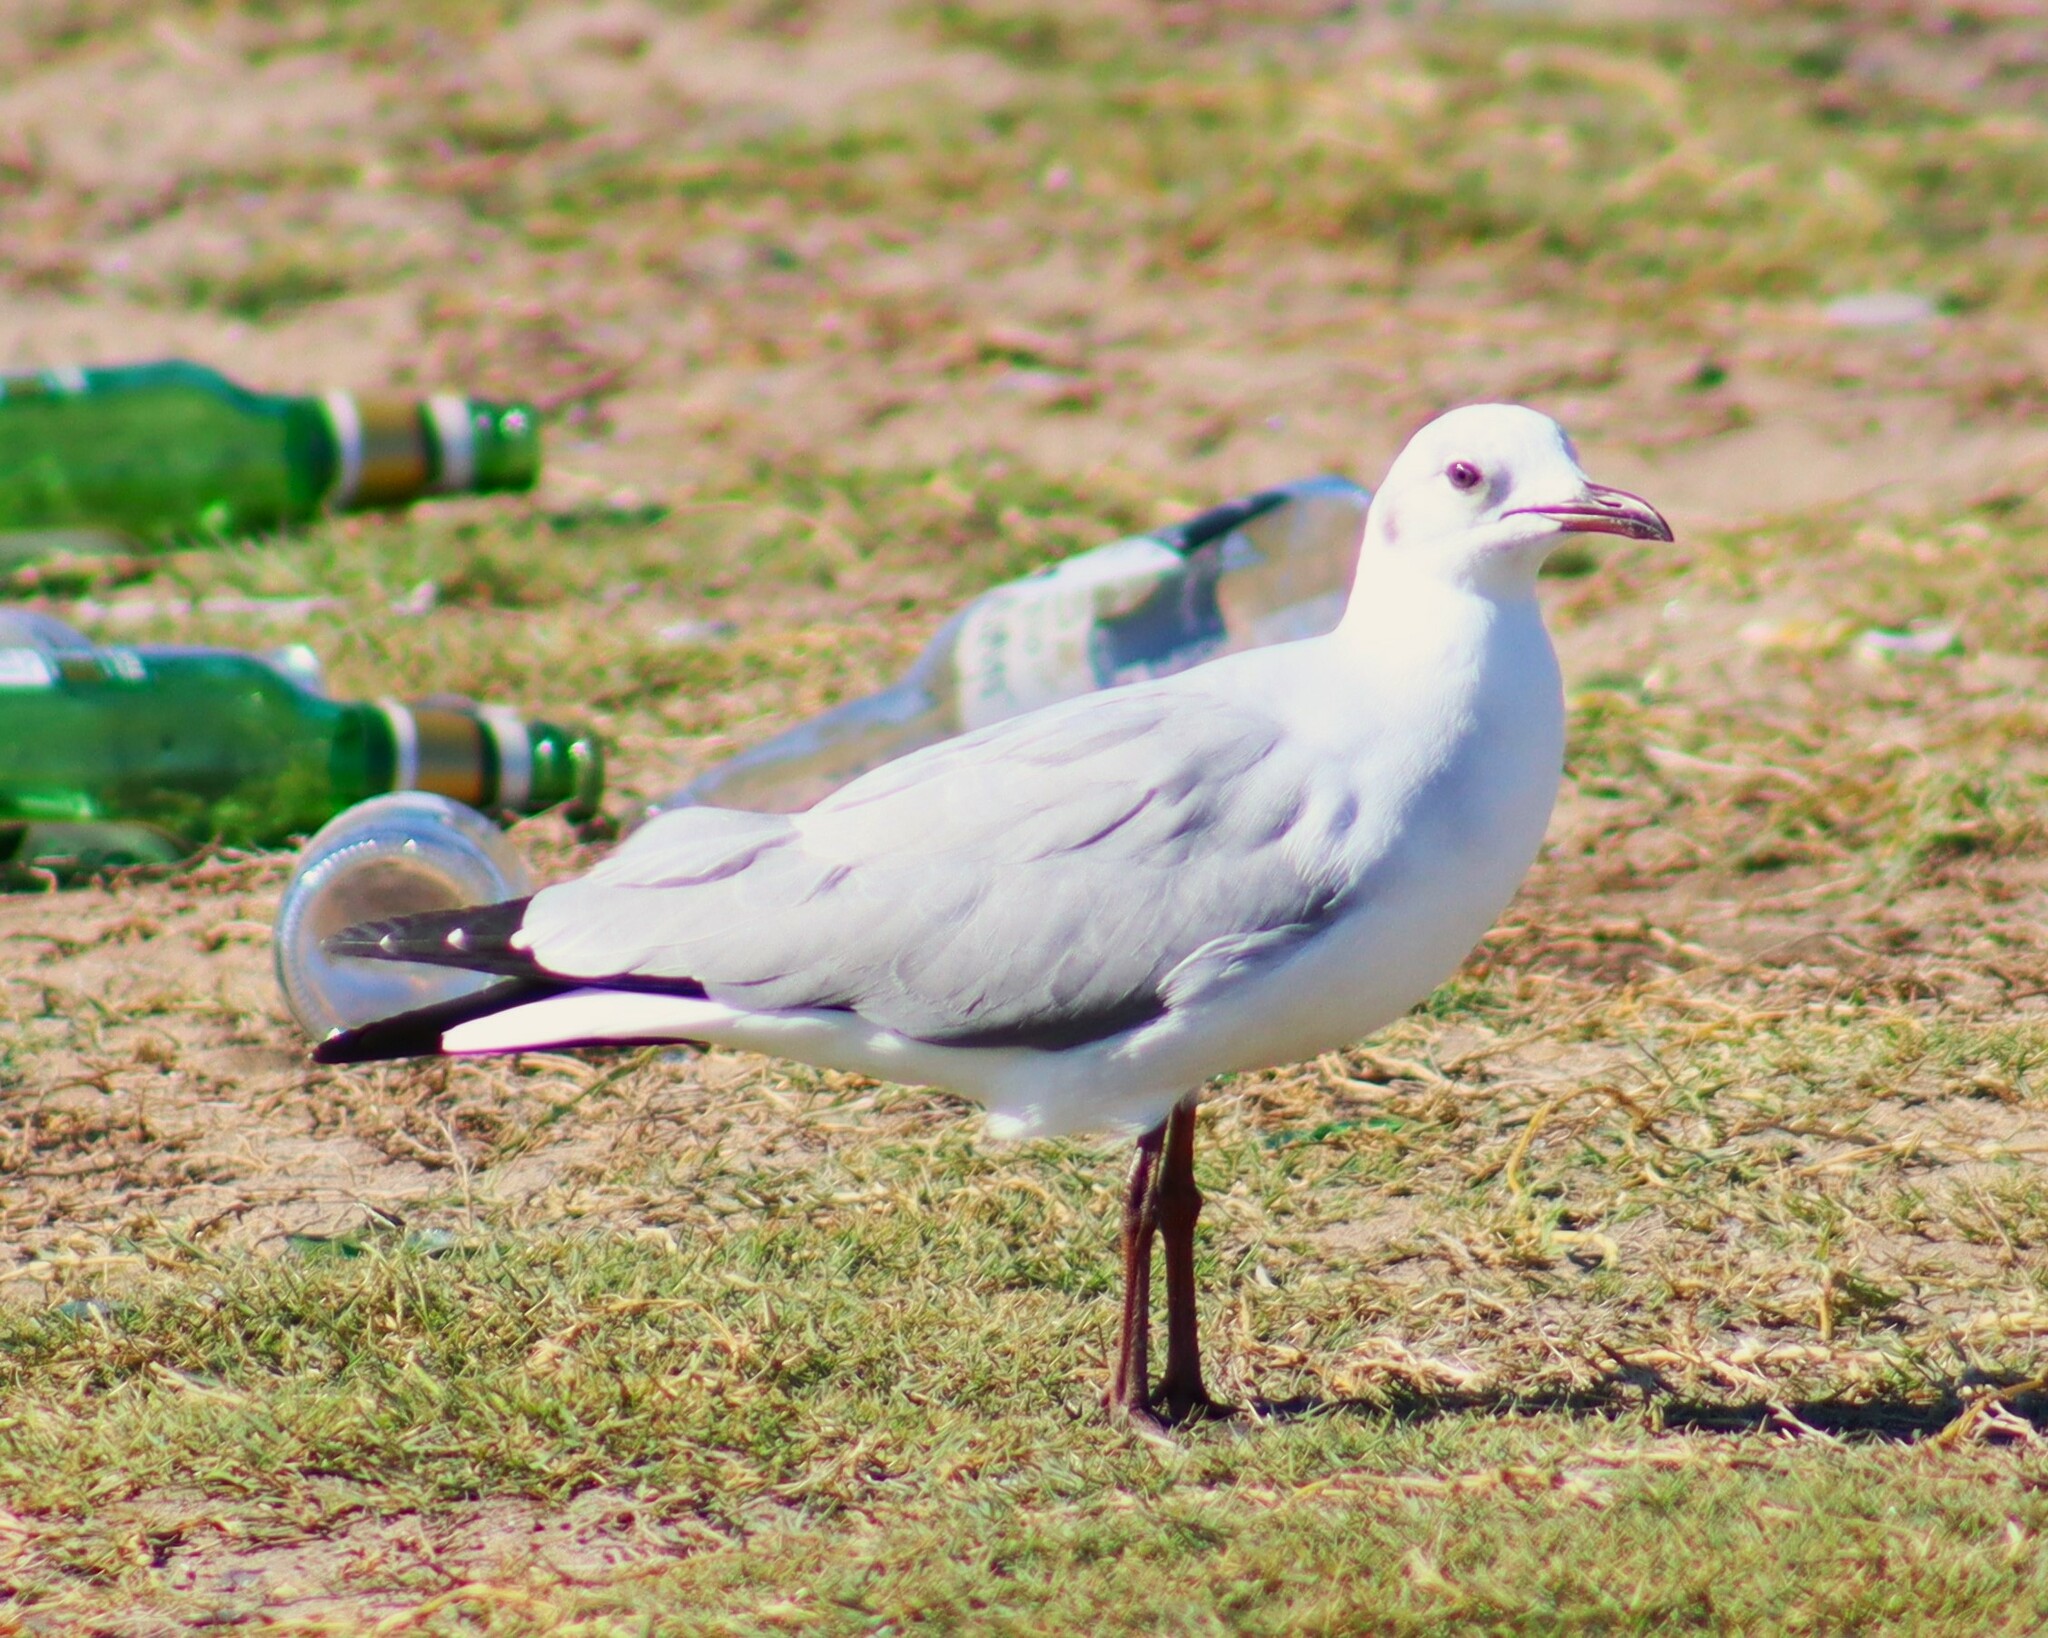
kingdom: Animalia
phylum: Chordata
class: Aves
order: Charadriiformes
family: Laridae
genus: Chroicocephalus
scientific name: Chroicocephalus cirrocephalus
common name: Grey-headed gull
